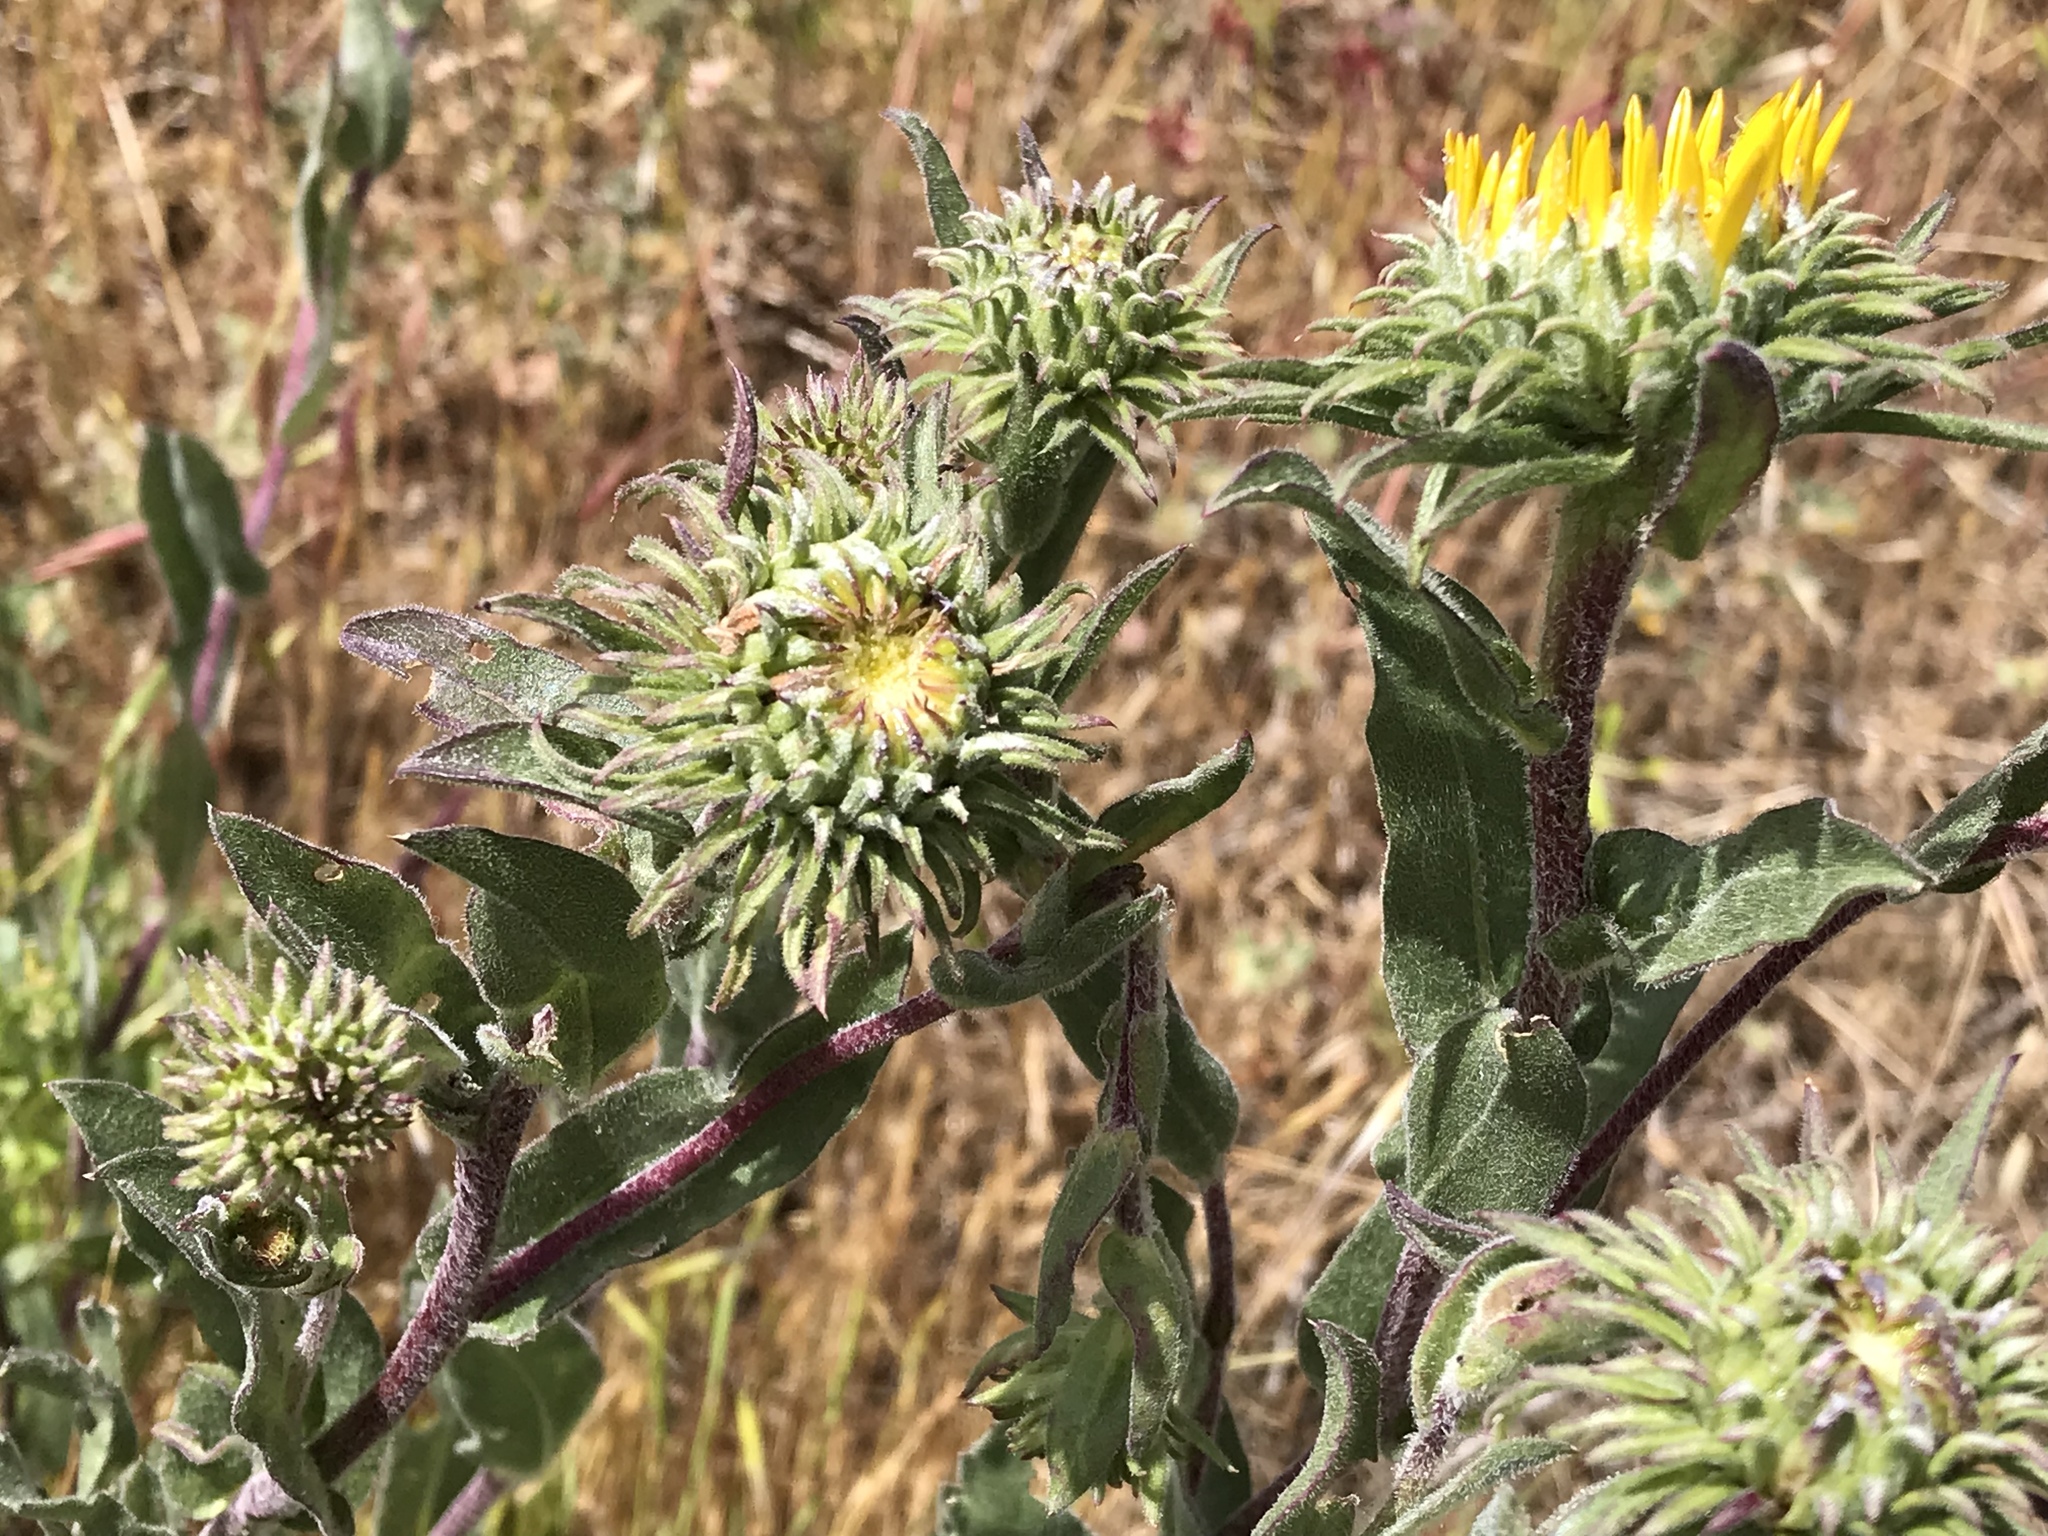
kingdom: Plantae
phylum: Tracheophyta
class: Magnoliopsida
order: Asterales
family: Asteraceae
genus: Grindelia
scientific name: Grindelia hirsutula
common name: Hairy gumweed
